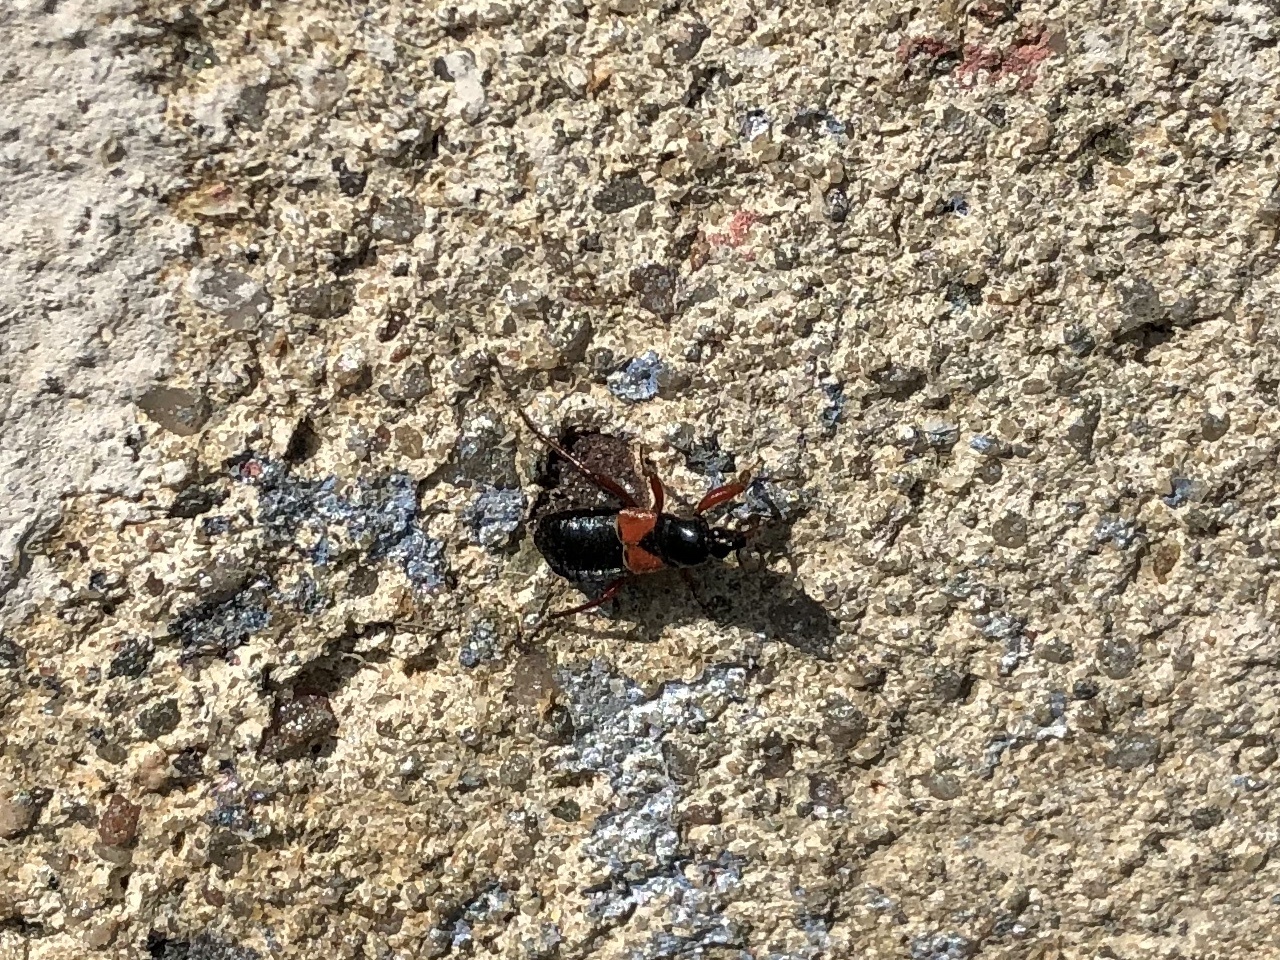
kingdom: Animalia
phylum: Arthropoda
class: Insecta
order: Hemiptera
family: Nabidae
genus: Prostemma
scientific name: Prostemma guttula
